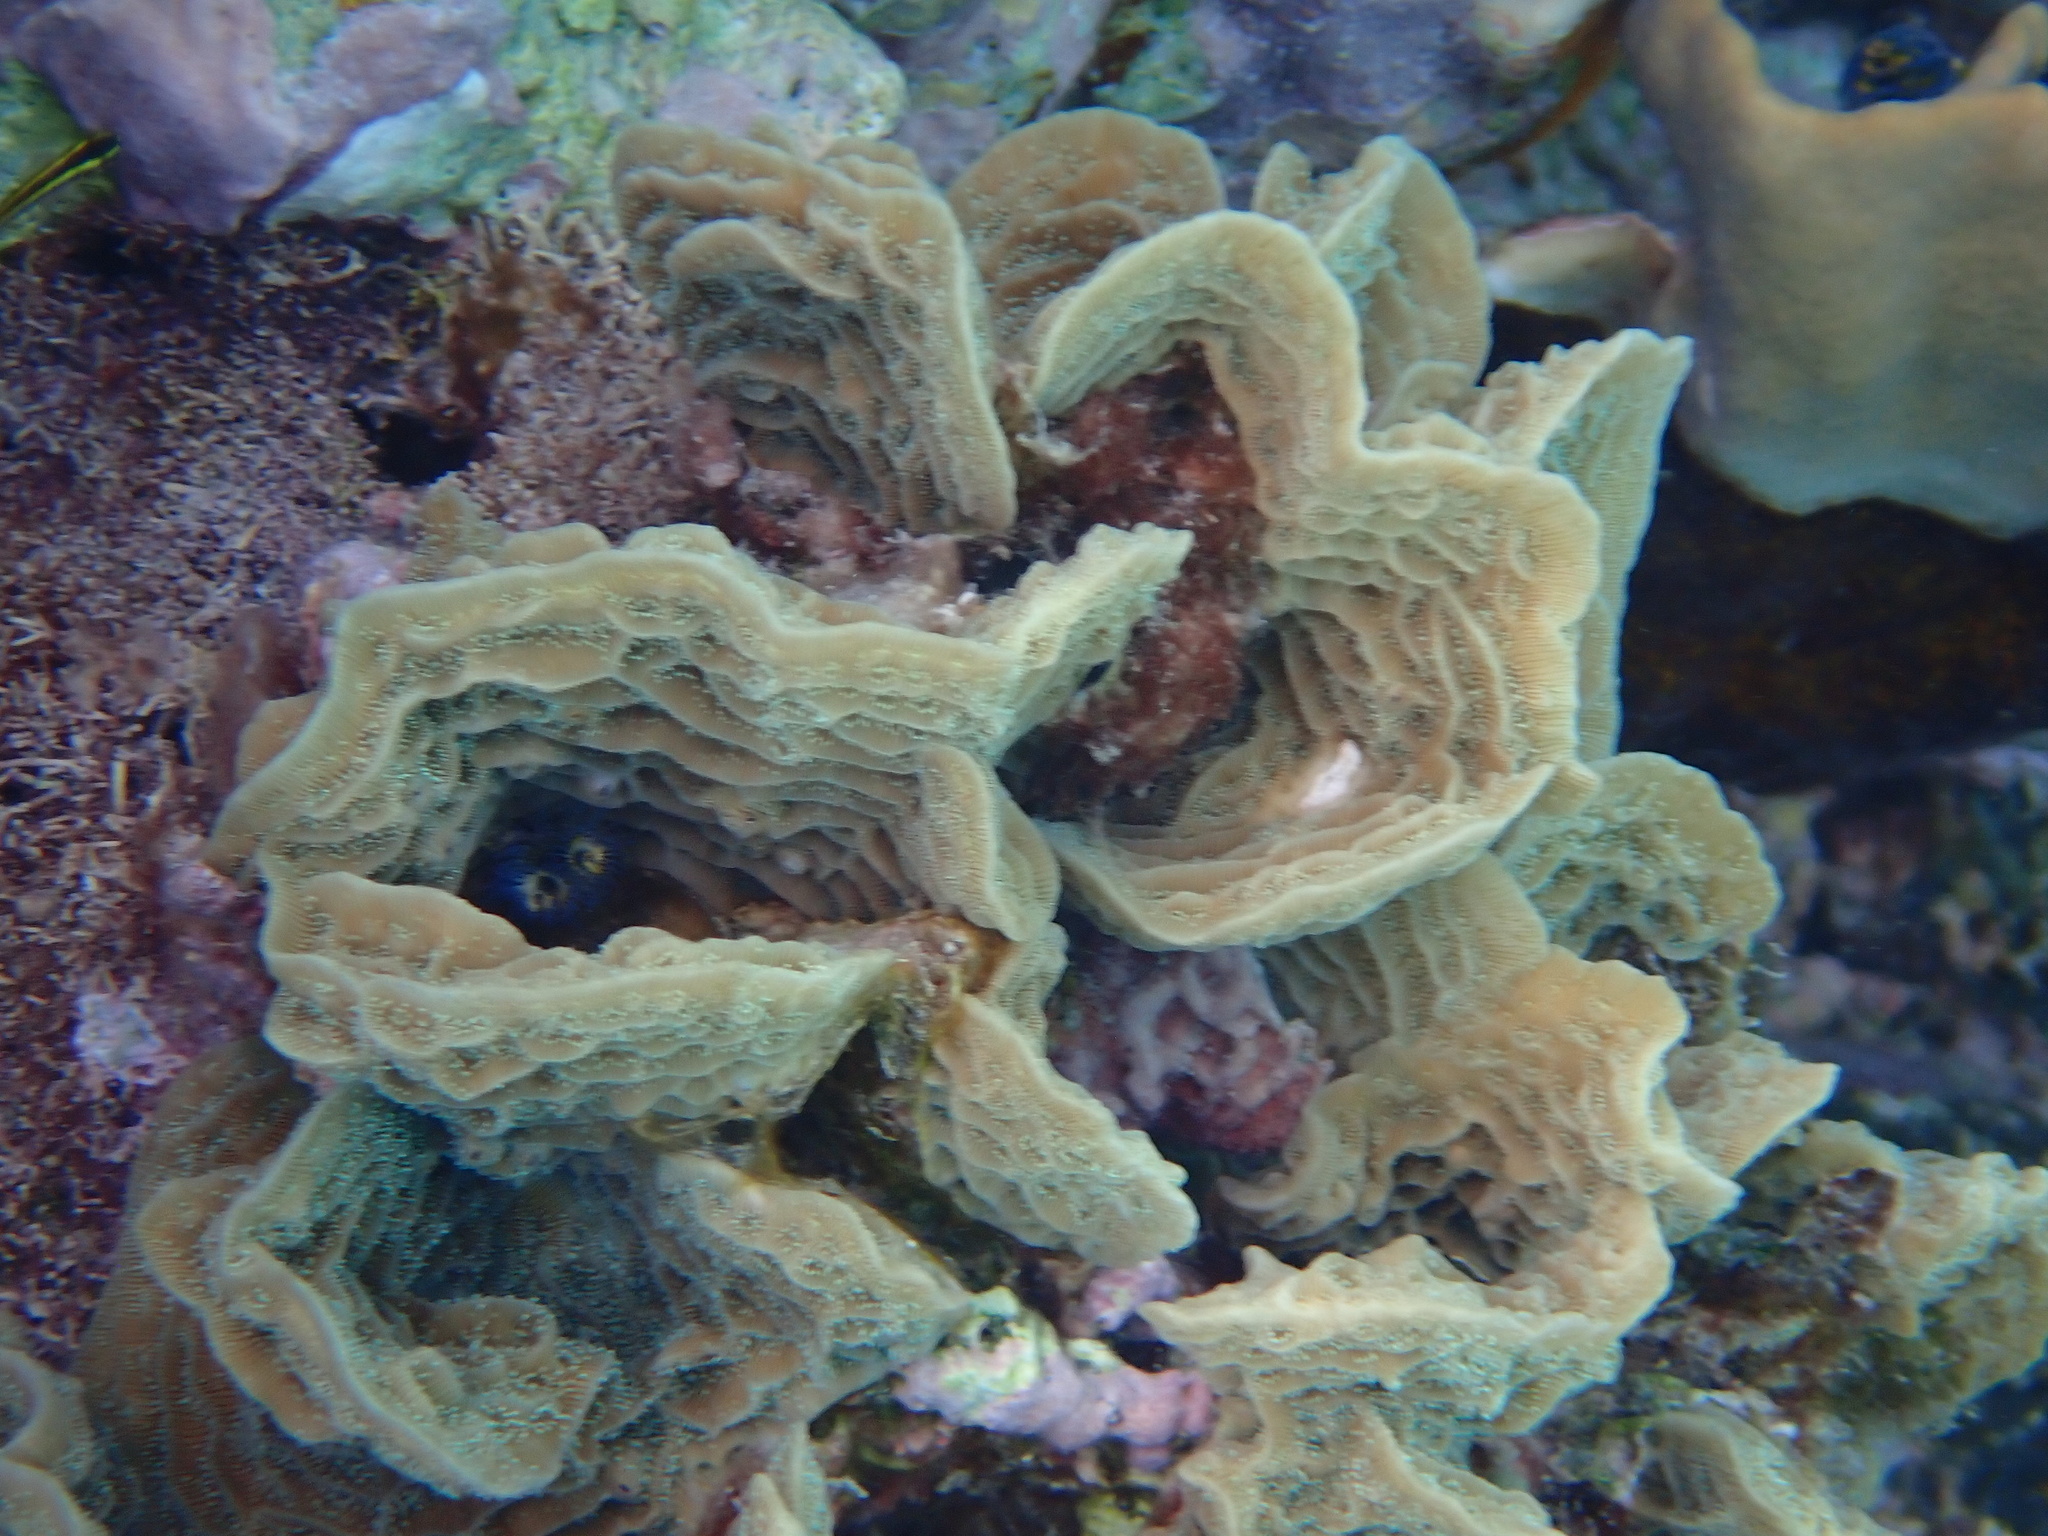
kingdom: Animalia
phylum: Cnidaria
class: Anthozoa
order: Scleractinia
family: Agariciidae
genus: Agaricia
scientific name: Agaricia agaricites
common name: Lettuce coral
